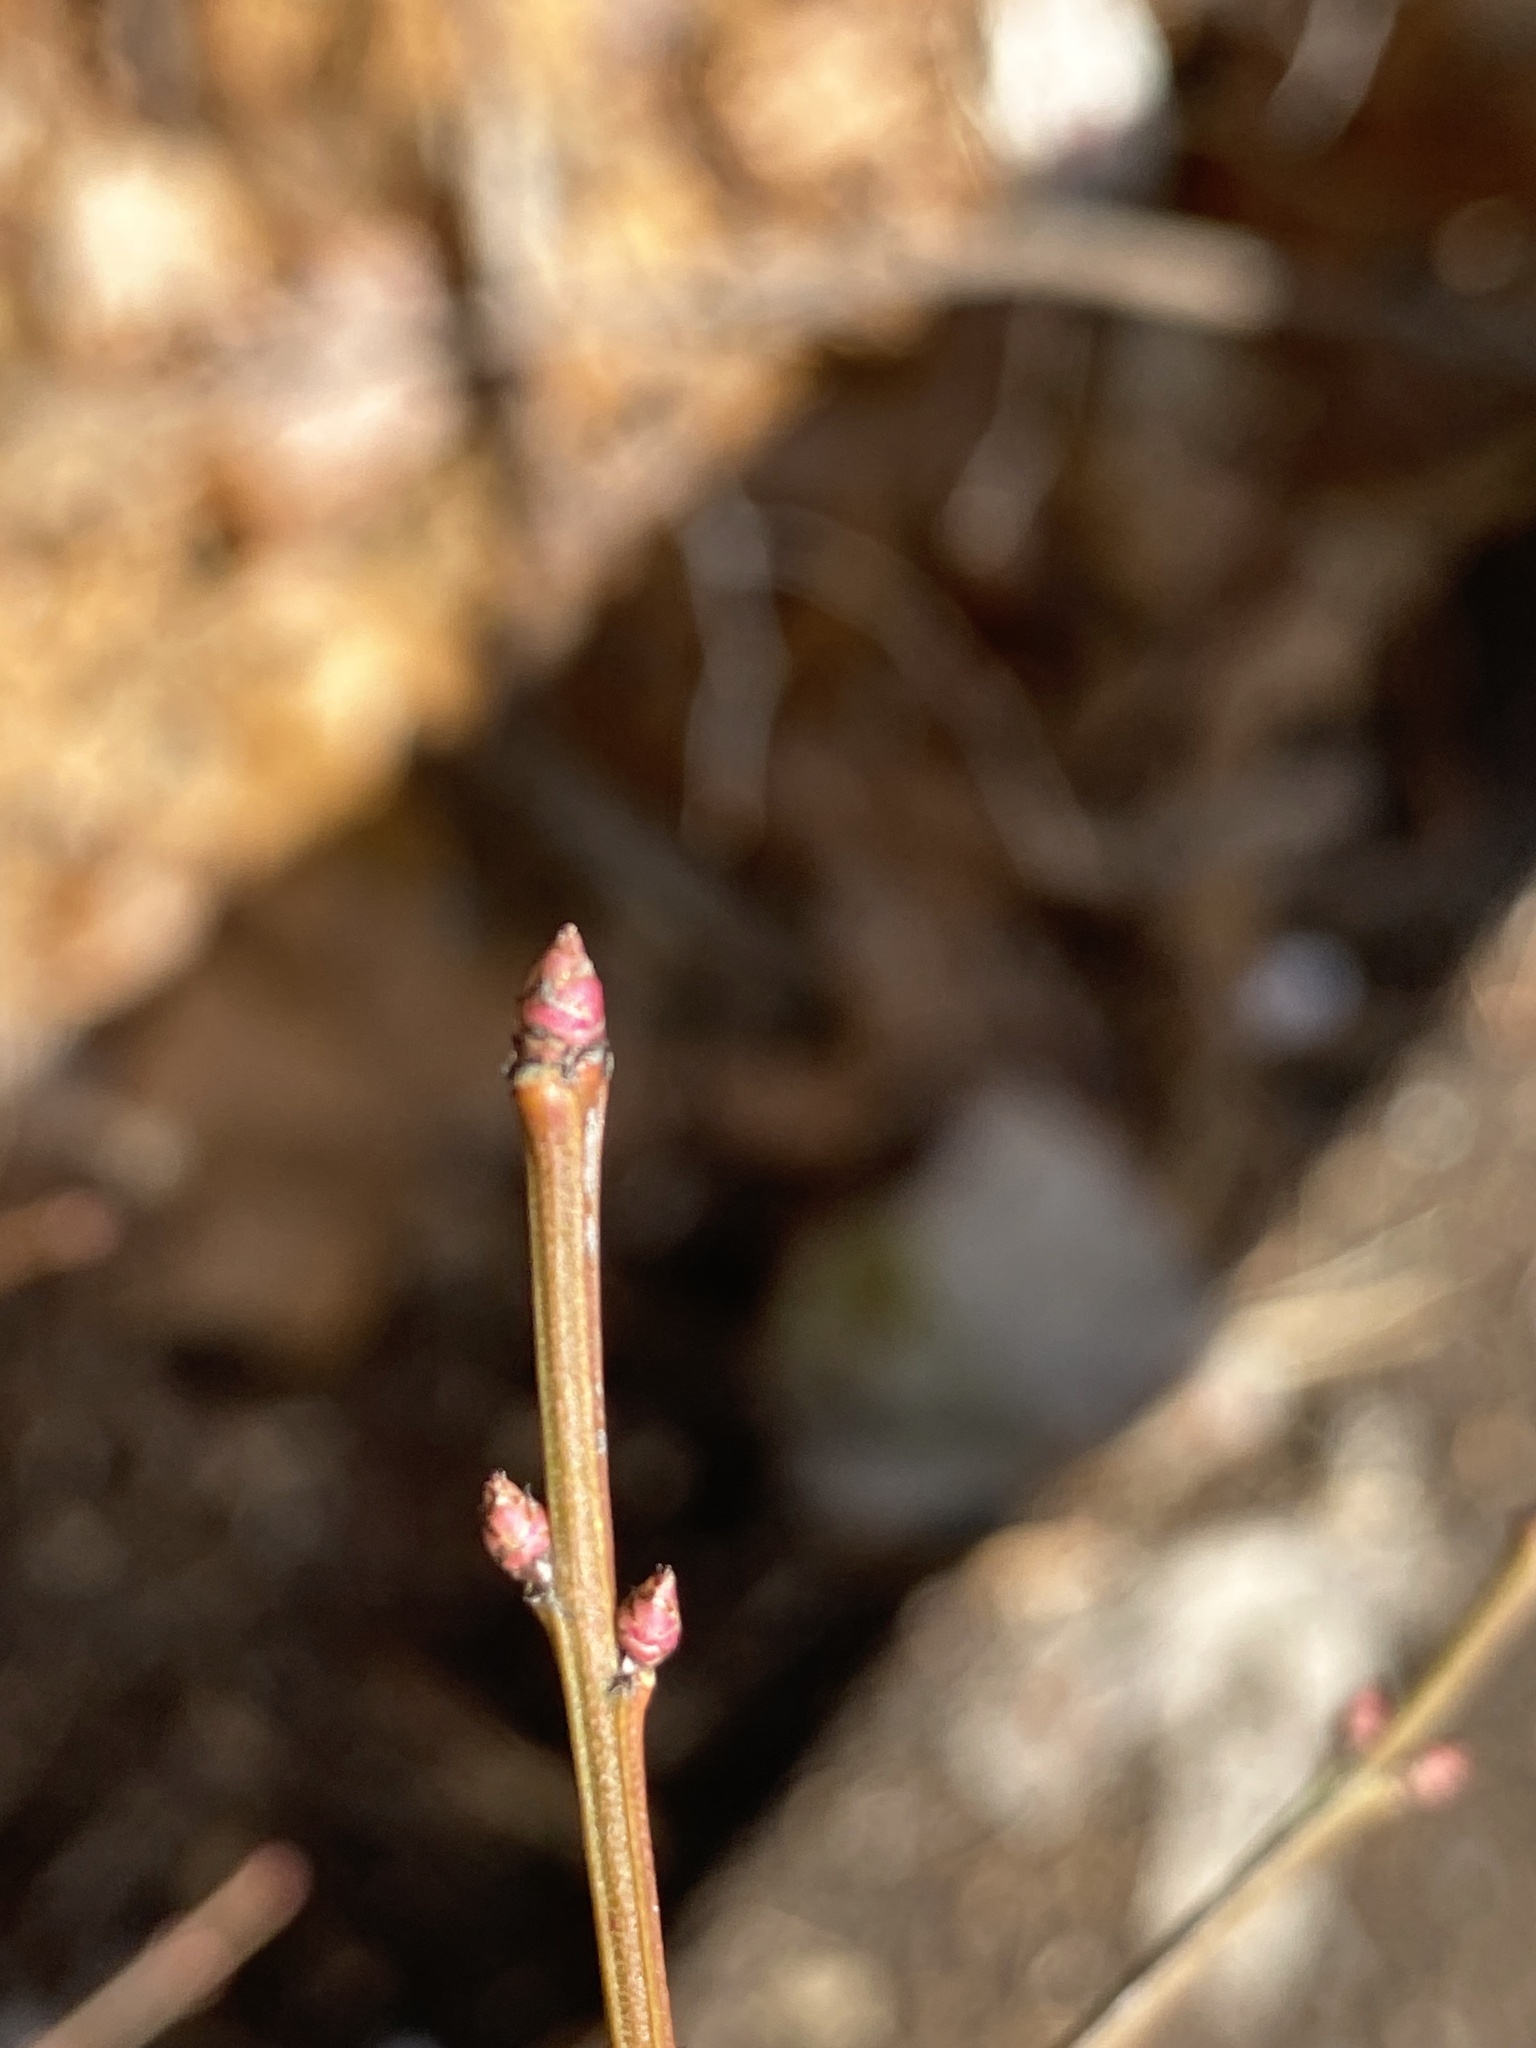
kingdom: Plantae
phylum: Tracheophyta
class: Magnoliopsida
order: Celastrales
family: Celastraceae
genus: Euonymus
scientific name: Euonymus alatus
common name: Winged euonymus
